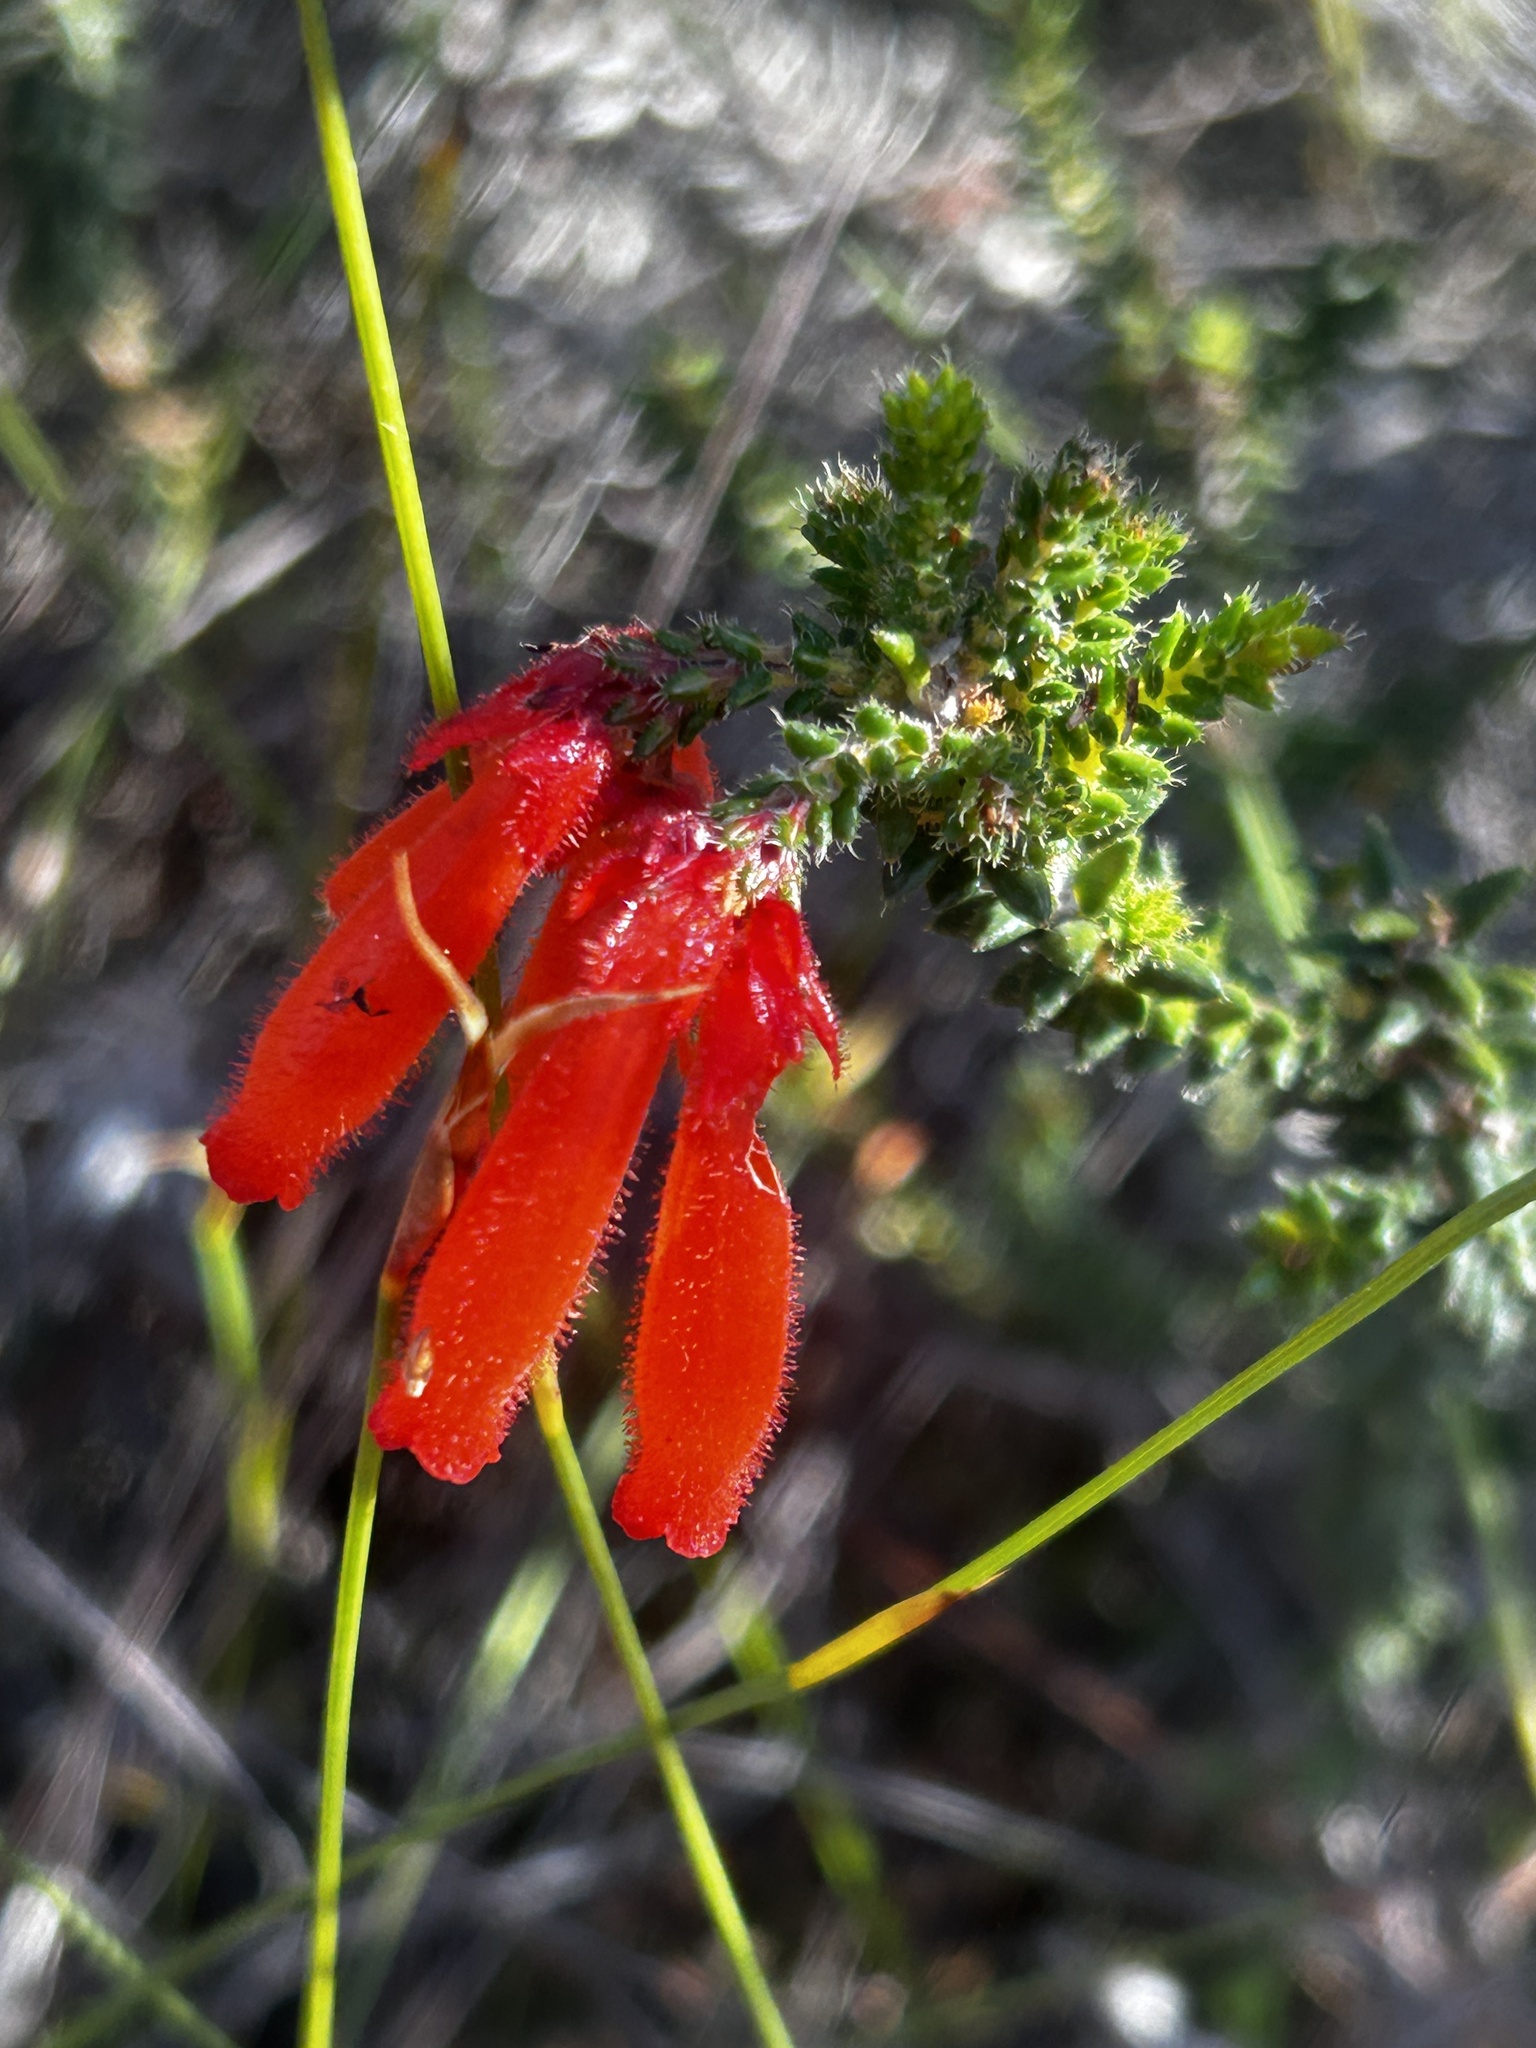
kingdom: Plantae
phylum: Tracheophyta
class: Magnoliopsida
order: Ericales
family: Ericaceae
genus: Erica
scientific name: Erica cerinthoides
